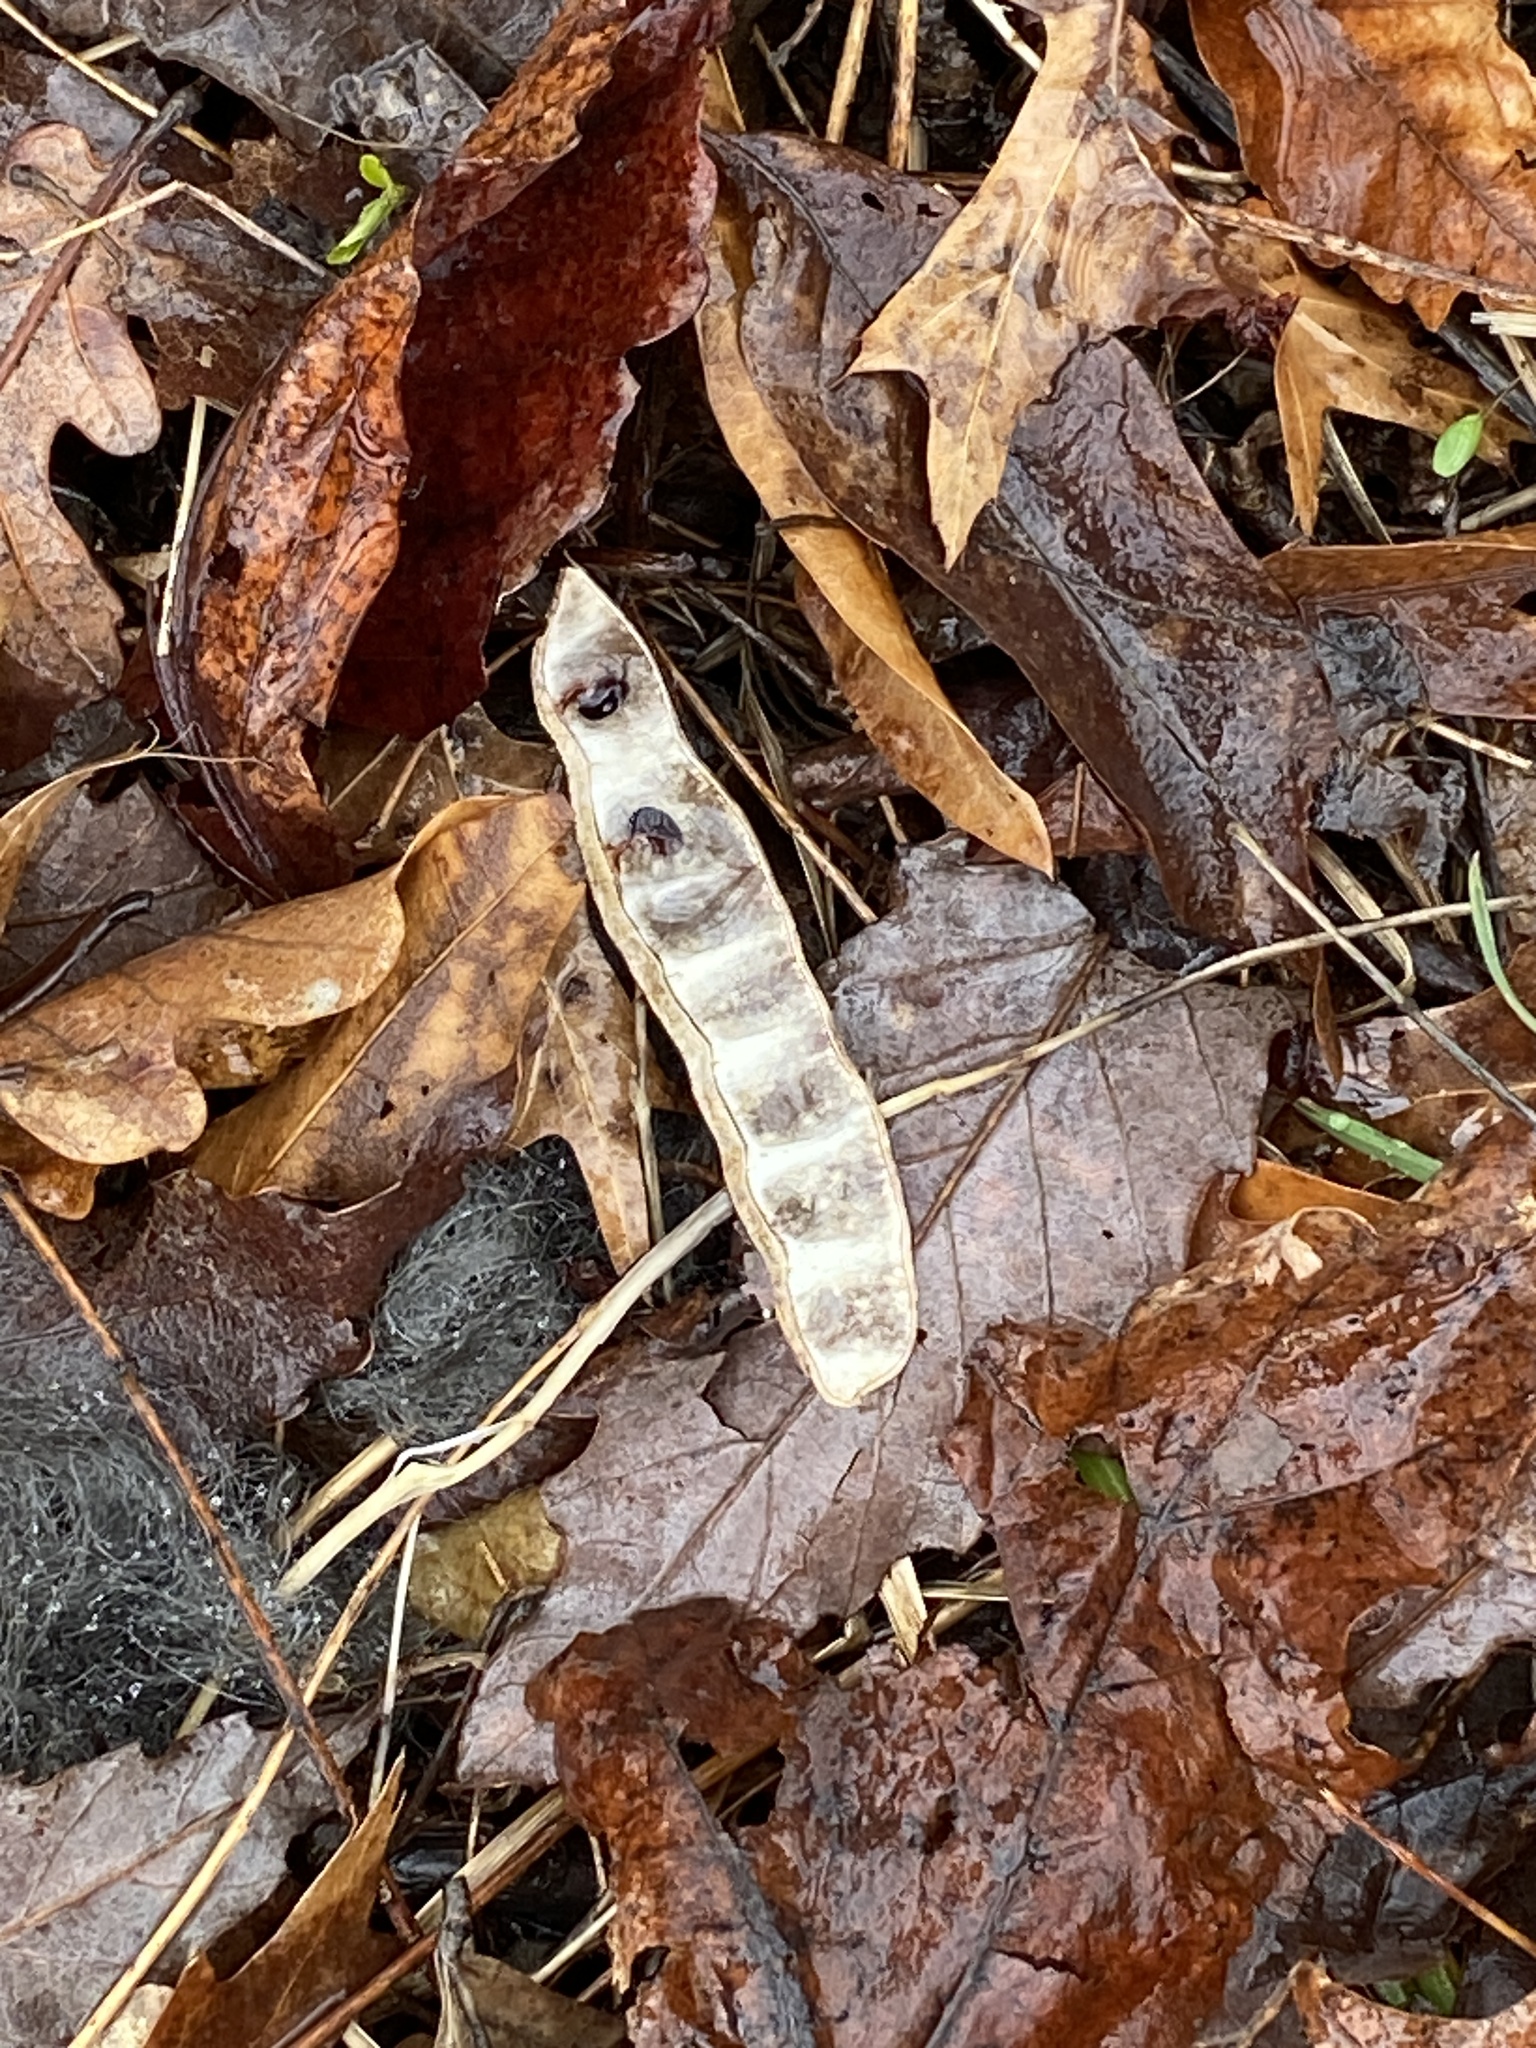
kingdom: Plantae
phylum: Tracheophyta
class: Magnoliopsida
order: Fabales
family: Fabaceae
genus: Robinia
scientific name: Robinia pseudoacacia
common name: Black locust
